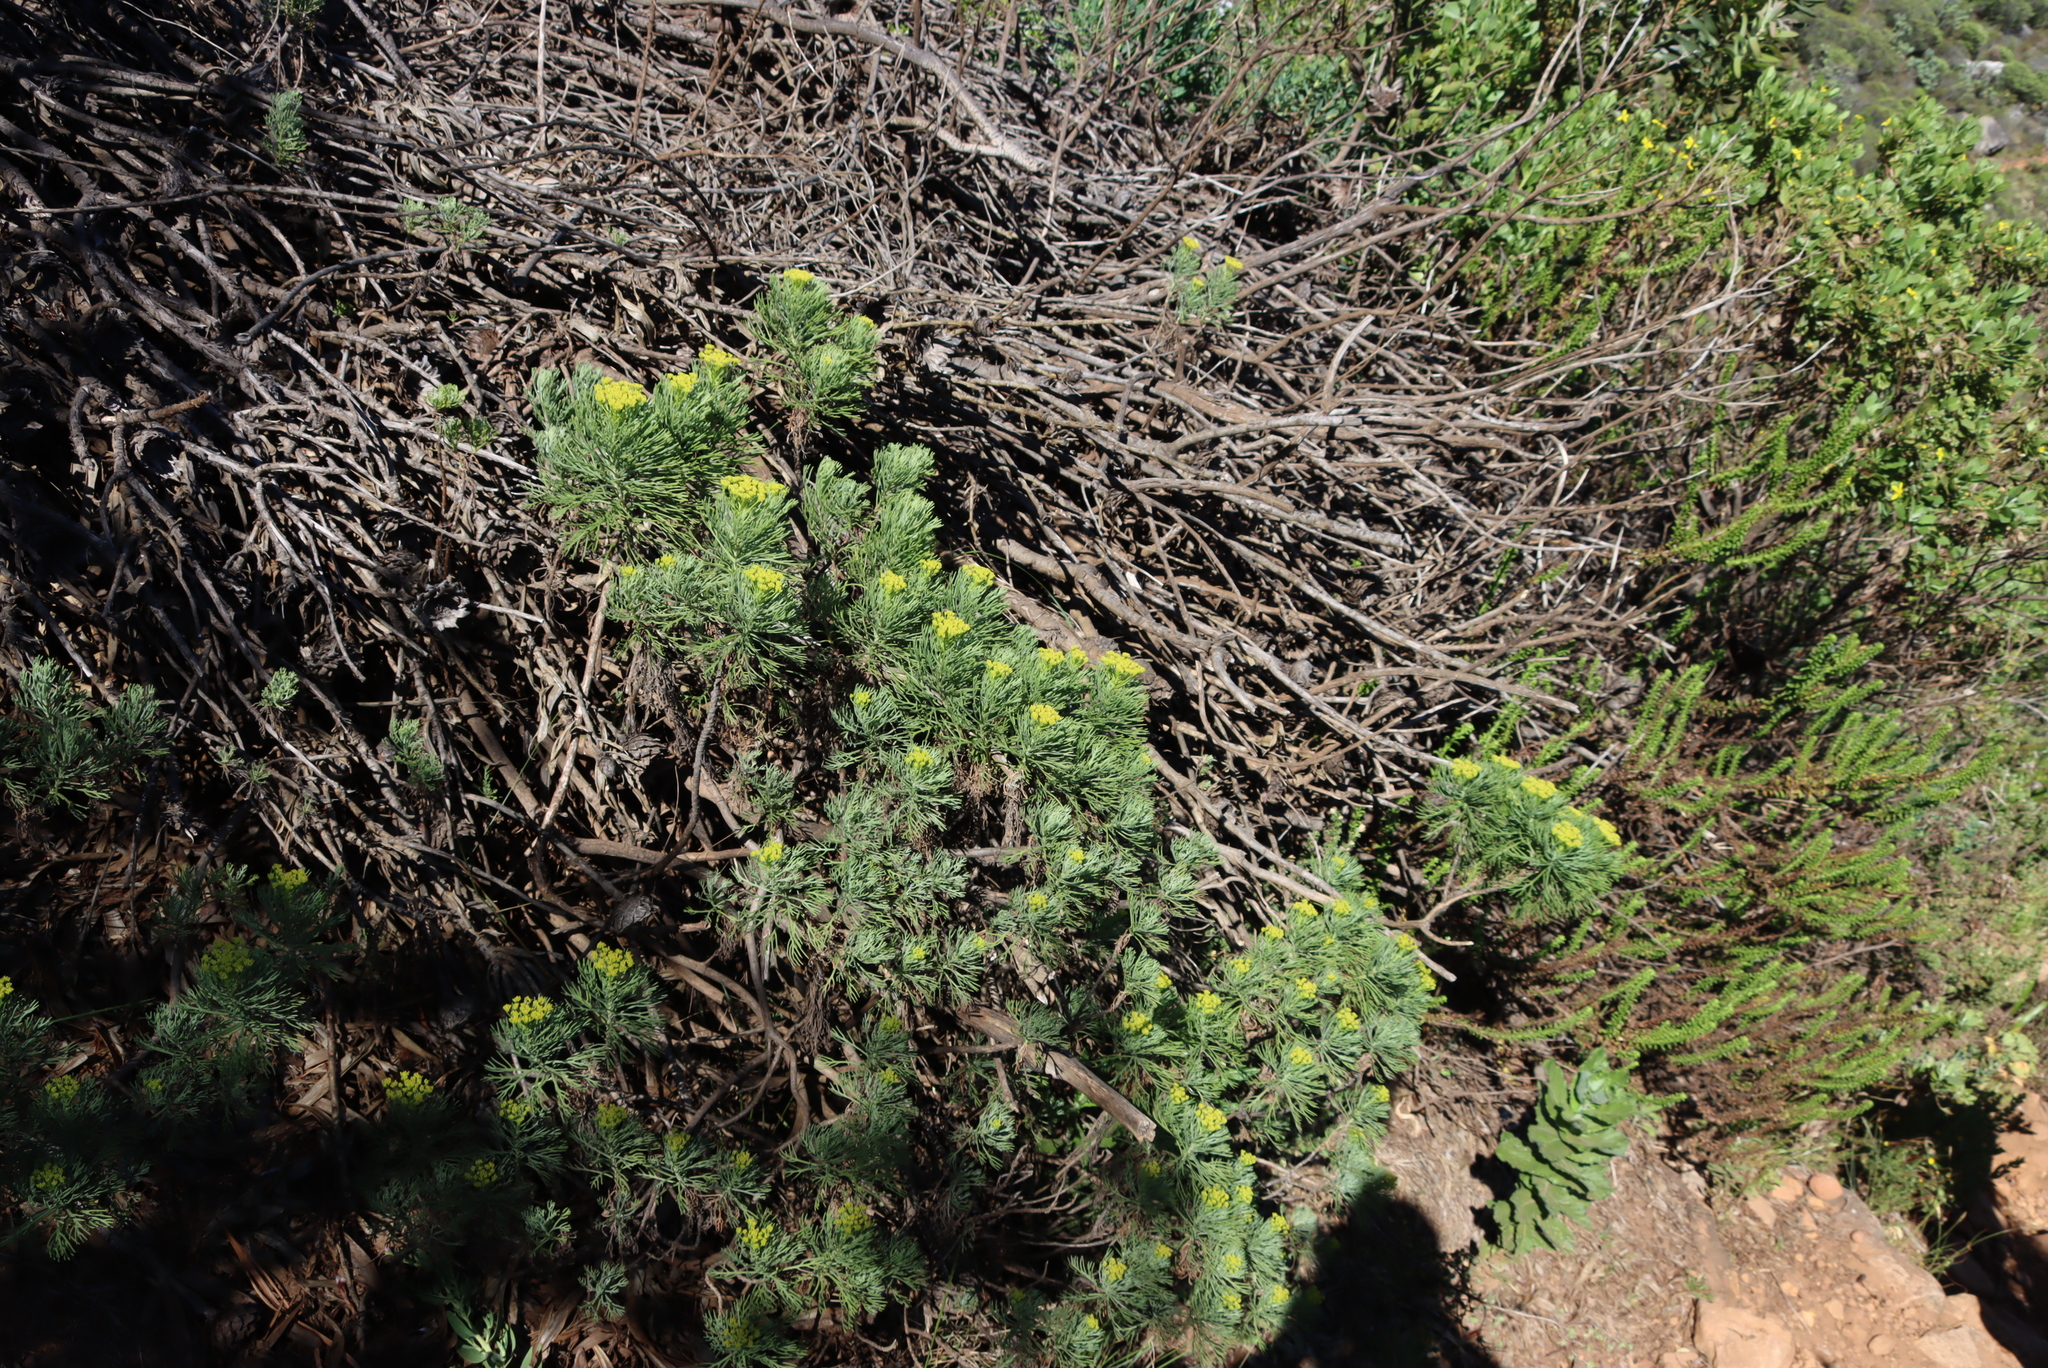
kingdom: Plantae
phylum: Tracheophyta
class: Magnoliopsida
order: Asterales
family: Asteraceae
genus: Hymenolepis
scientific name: Hymenolepis crithmifolia
